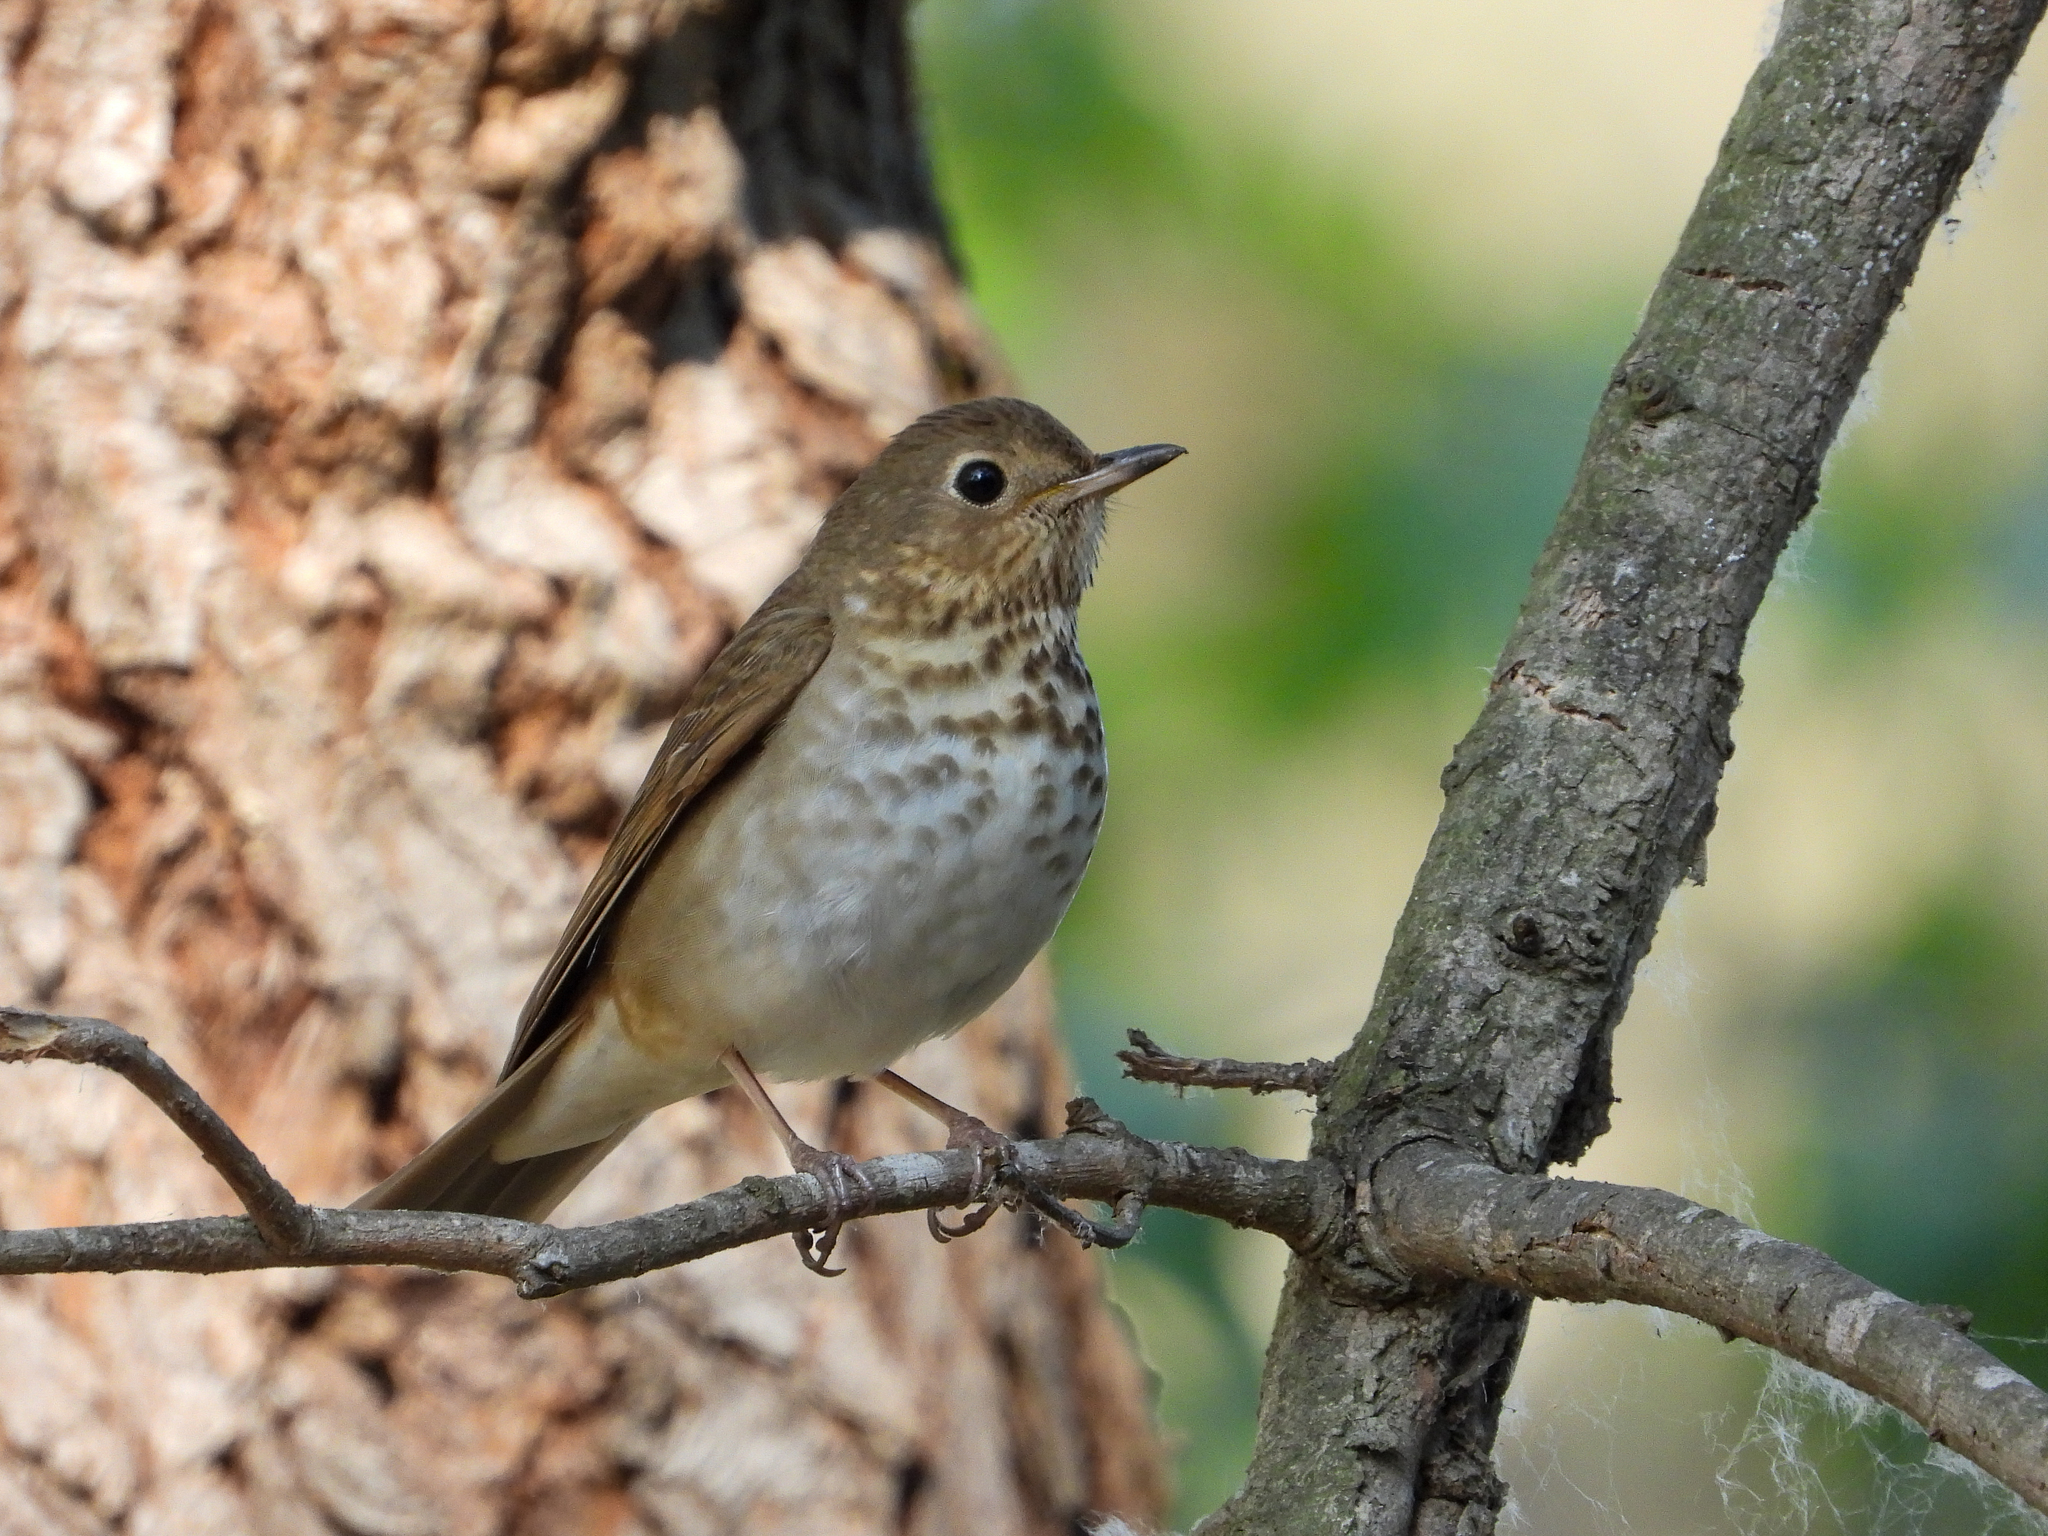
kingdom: Animalia
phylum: Chordata
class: Aves
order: Passeriformes
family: Turdidae
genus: Catharus
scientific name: Catharus ustulatus
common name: Swainson's thrush
